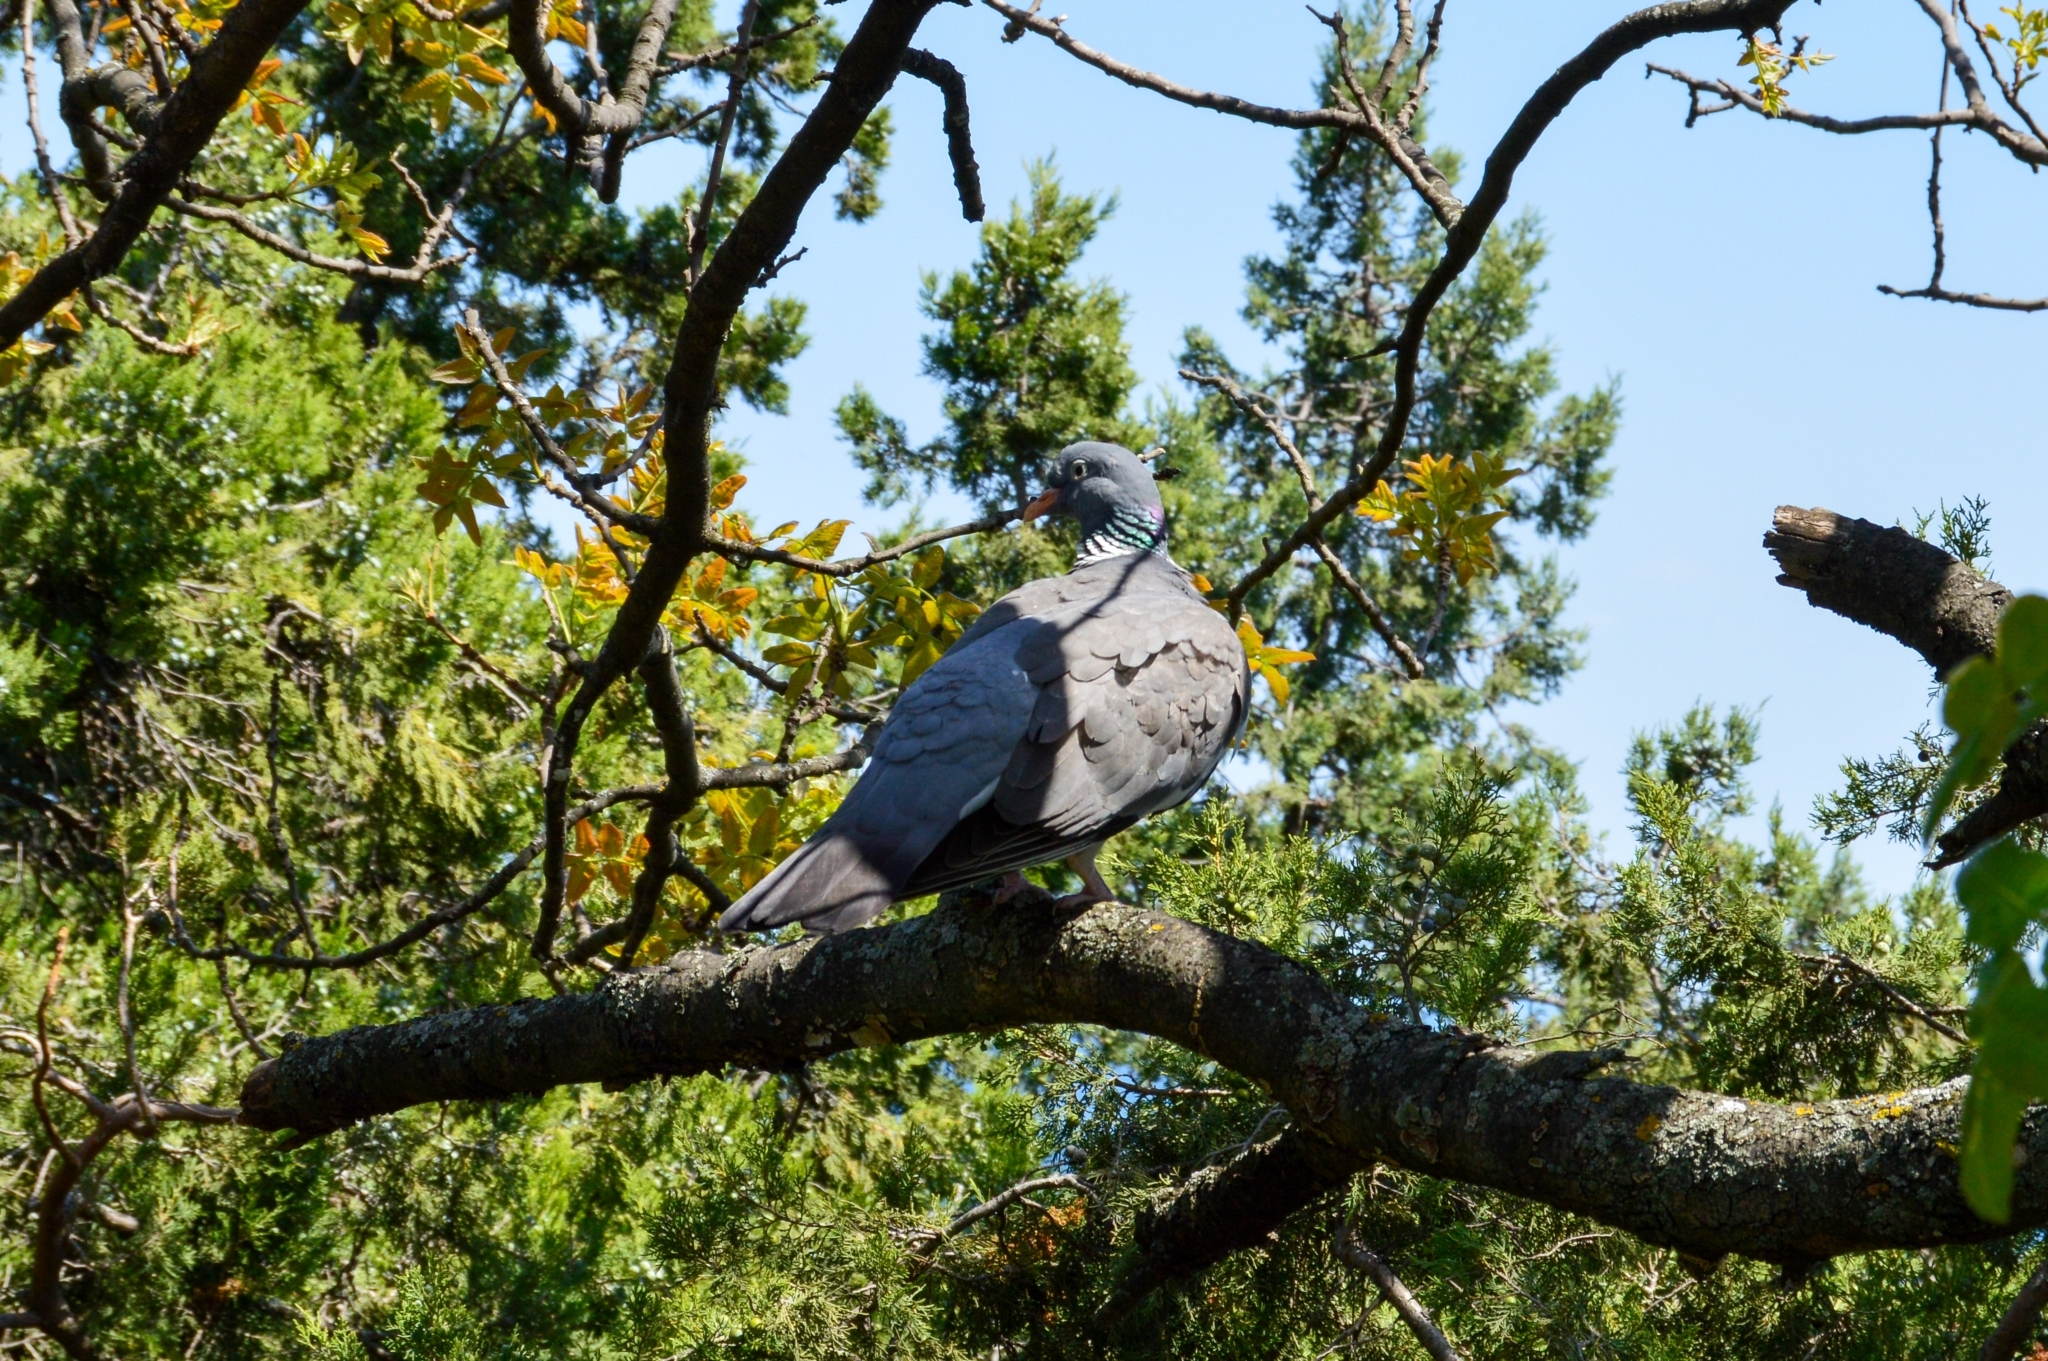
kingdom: Animalia
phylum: Chordata
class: Aves
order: Columbiformes
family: Columbidae
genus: Columba
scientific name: Columba palumbus
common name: Common wood pigeon
